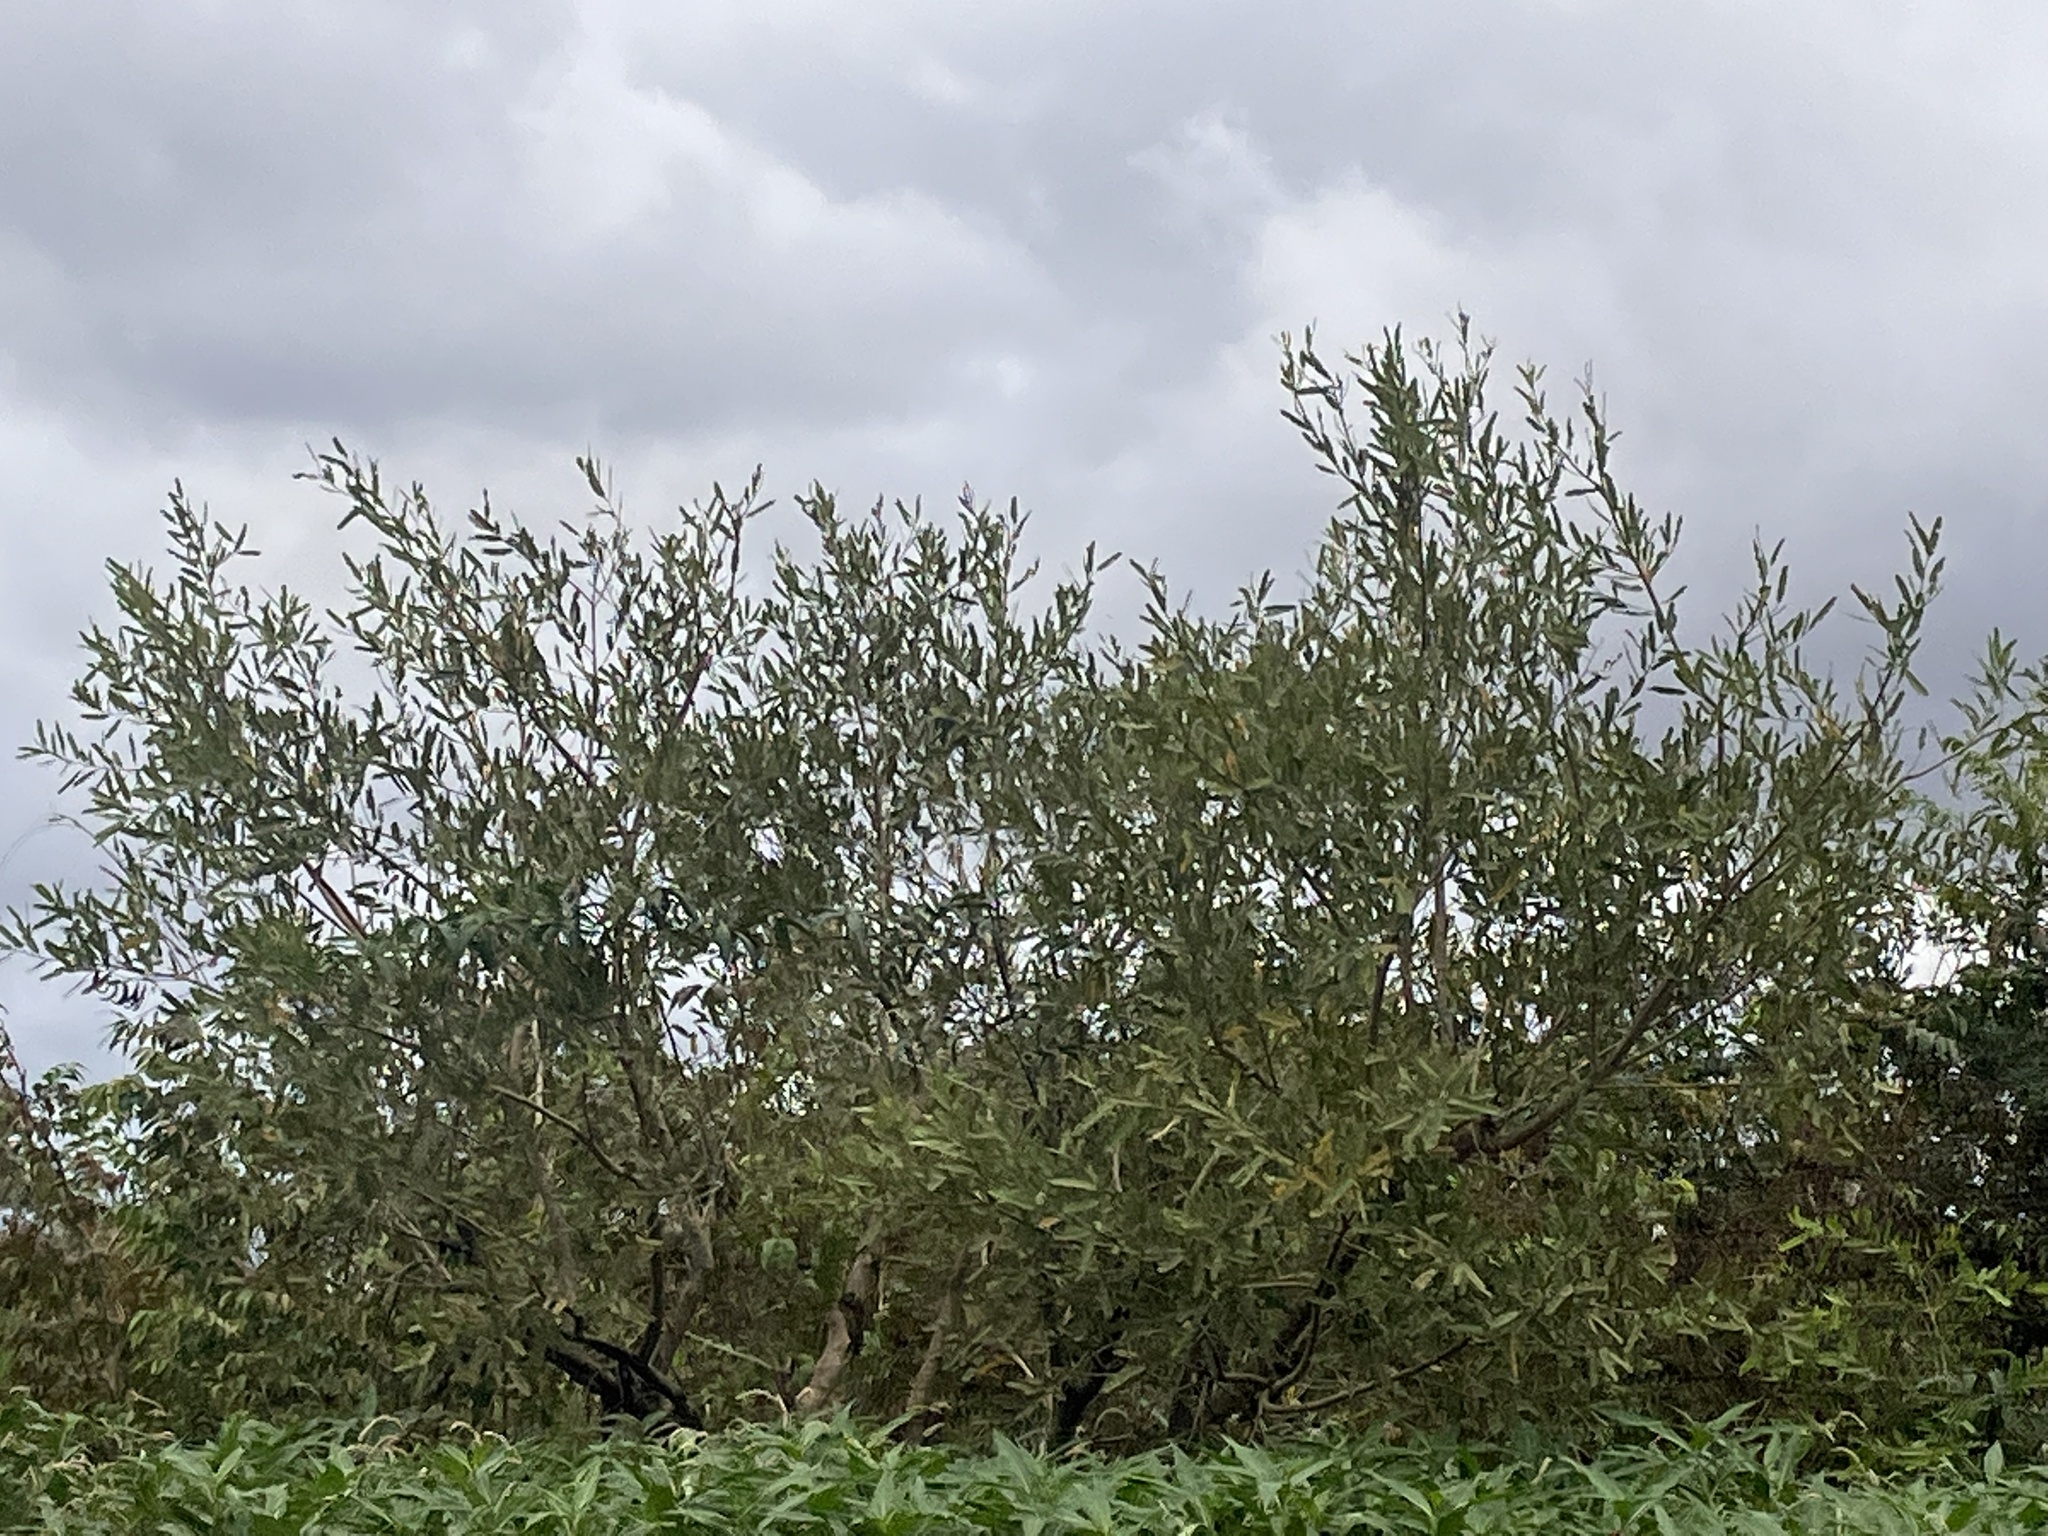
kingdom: Plantae
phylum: Tracheophyta
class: Magnoliopsida
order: Malpighiales
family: Euphorbiaceae
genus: Alchornea
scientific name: Alchornea castaneifolia
